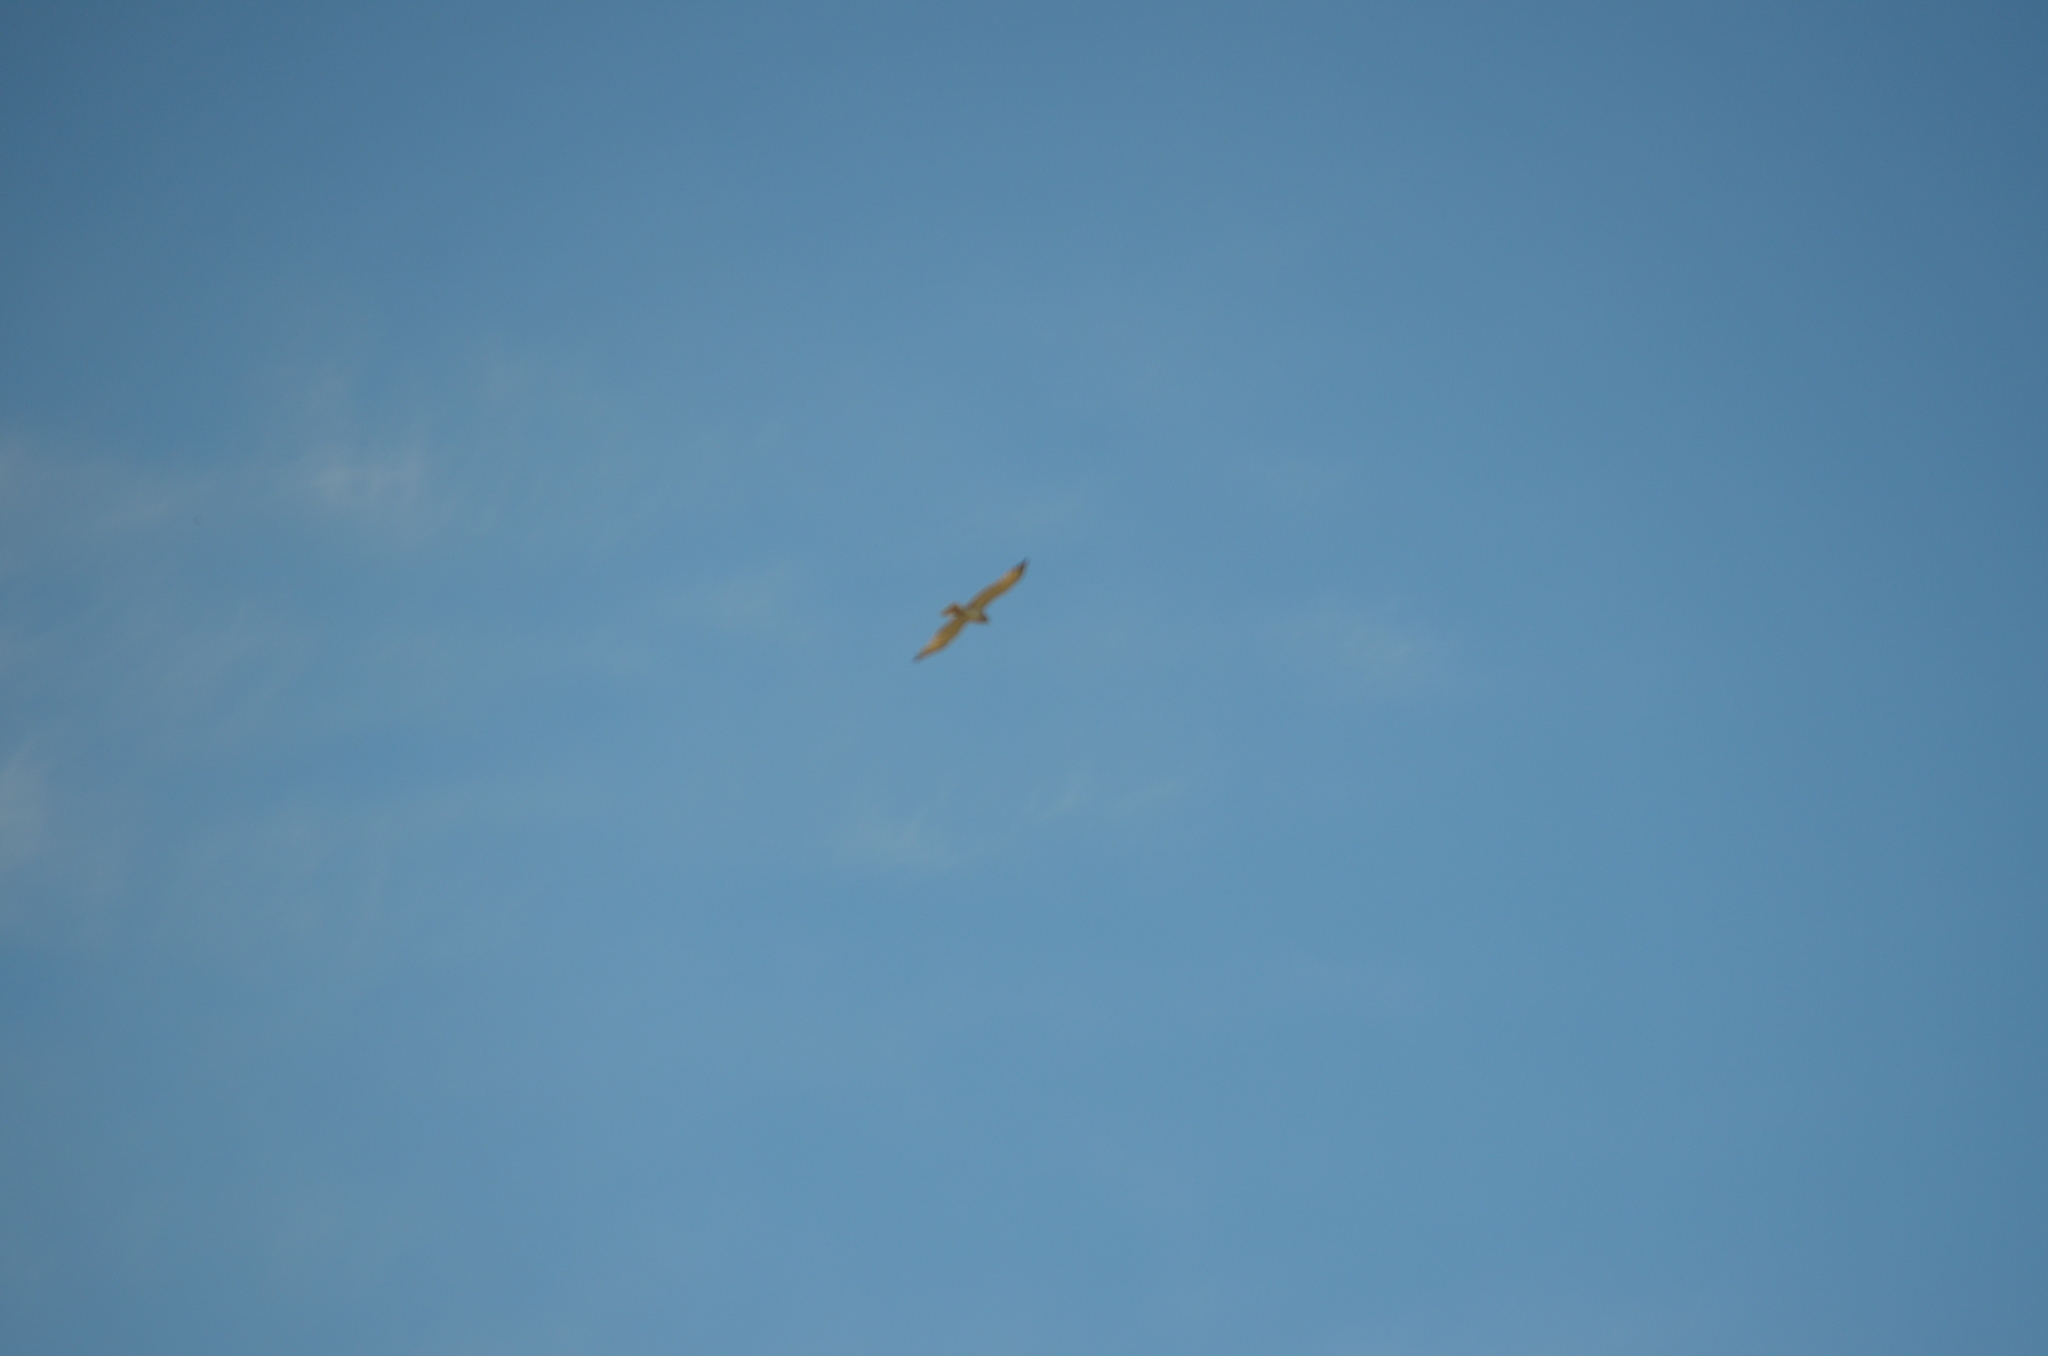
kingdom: Animalia
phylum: Chordata
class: Aves
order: Accipitriformes
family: Accipitridae
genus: Circaetus
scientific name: Circaetus gallicus
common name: Short-toed snake eagle
